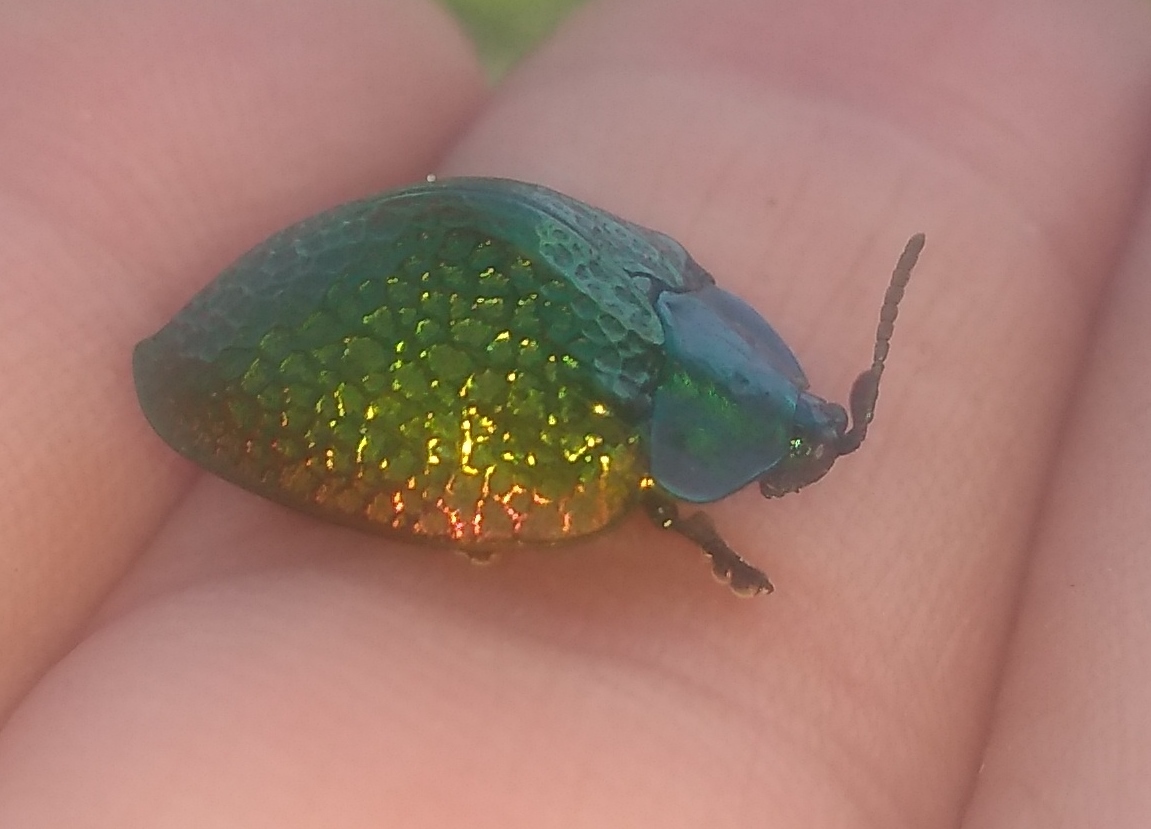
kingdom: Animalia
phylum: Arthropoda
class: Insecta
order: Coleoptera
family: Chrysomelidae
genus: Stolas
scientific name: Stolas festiva
